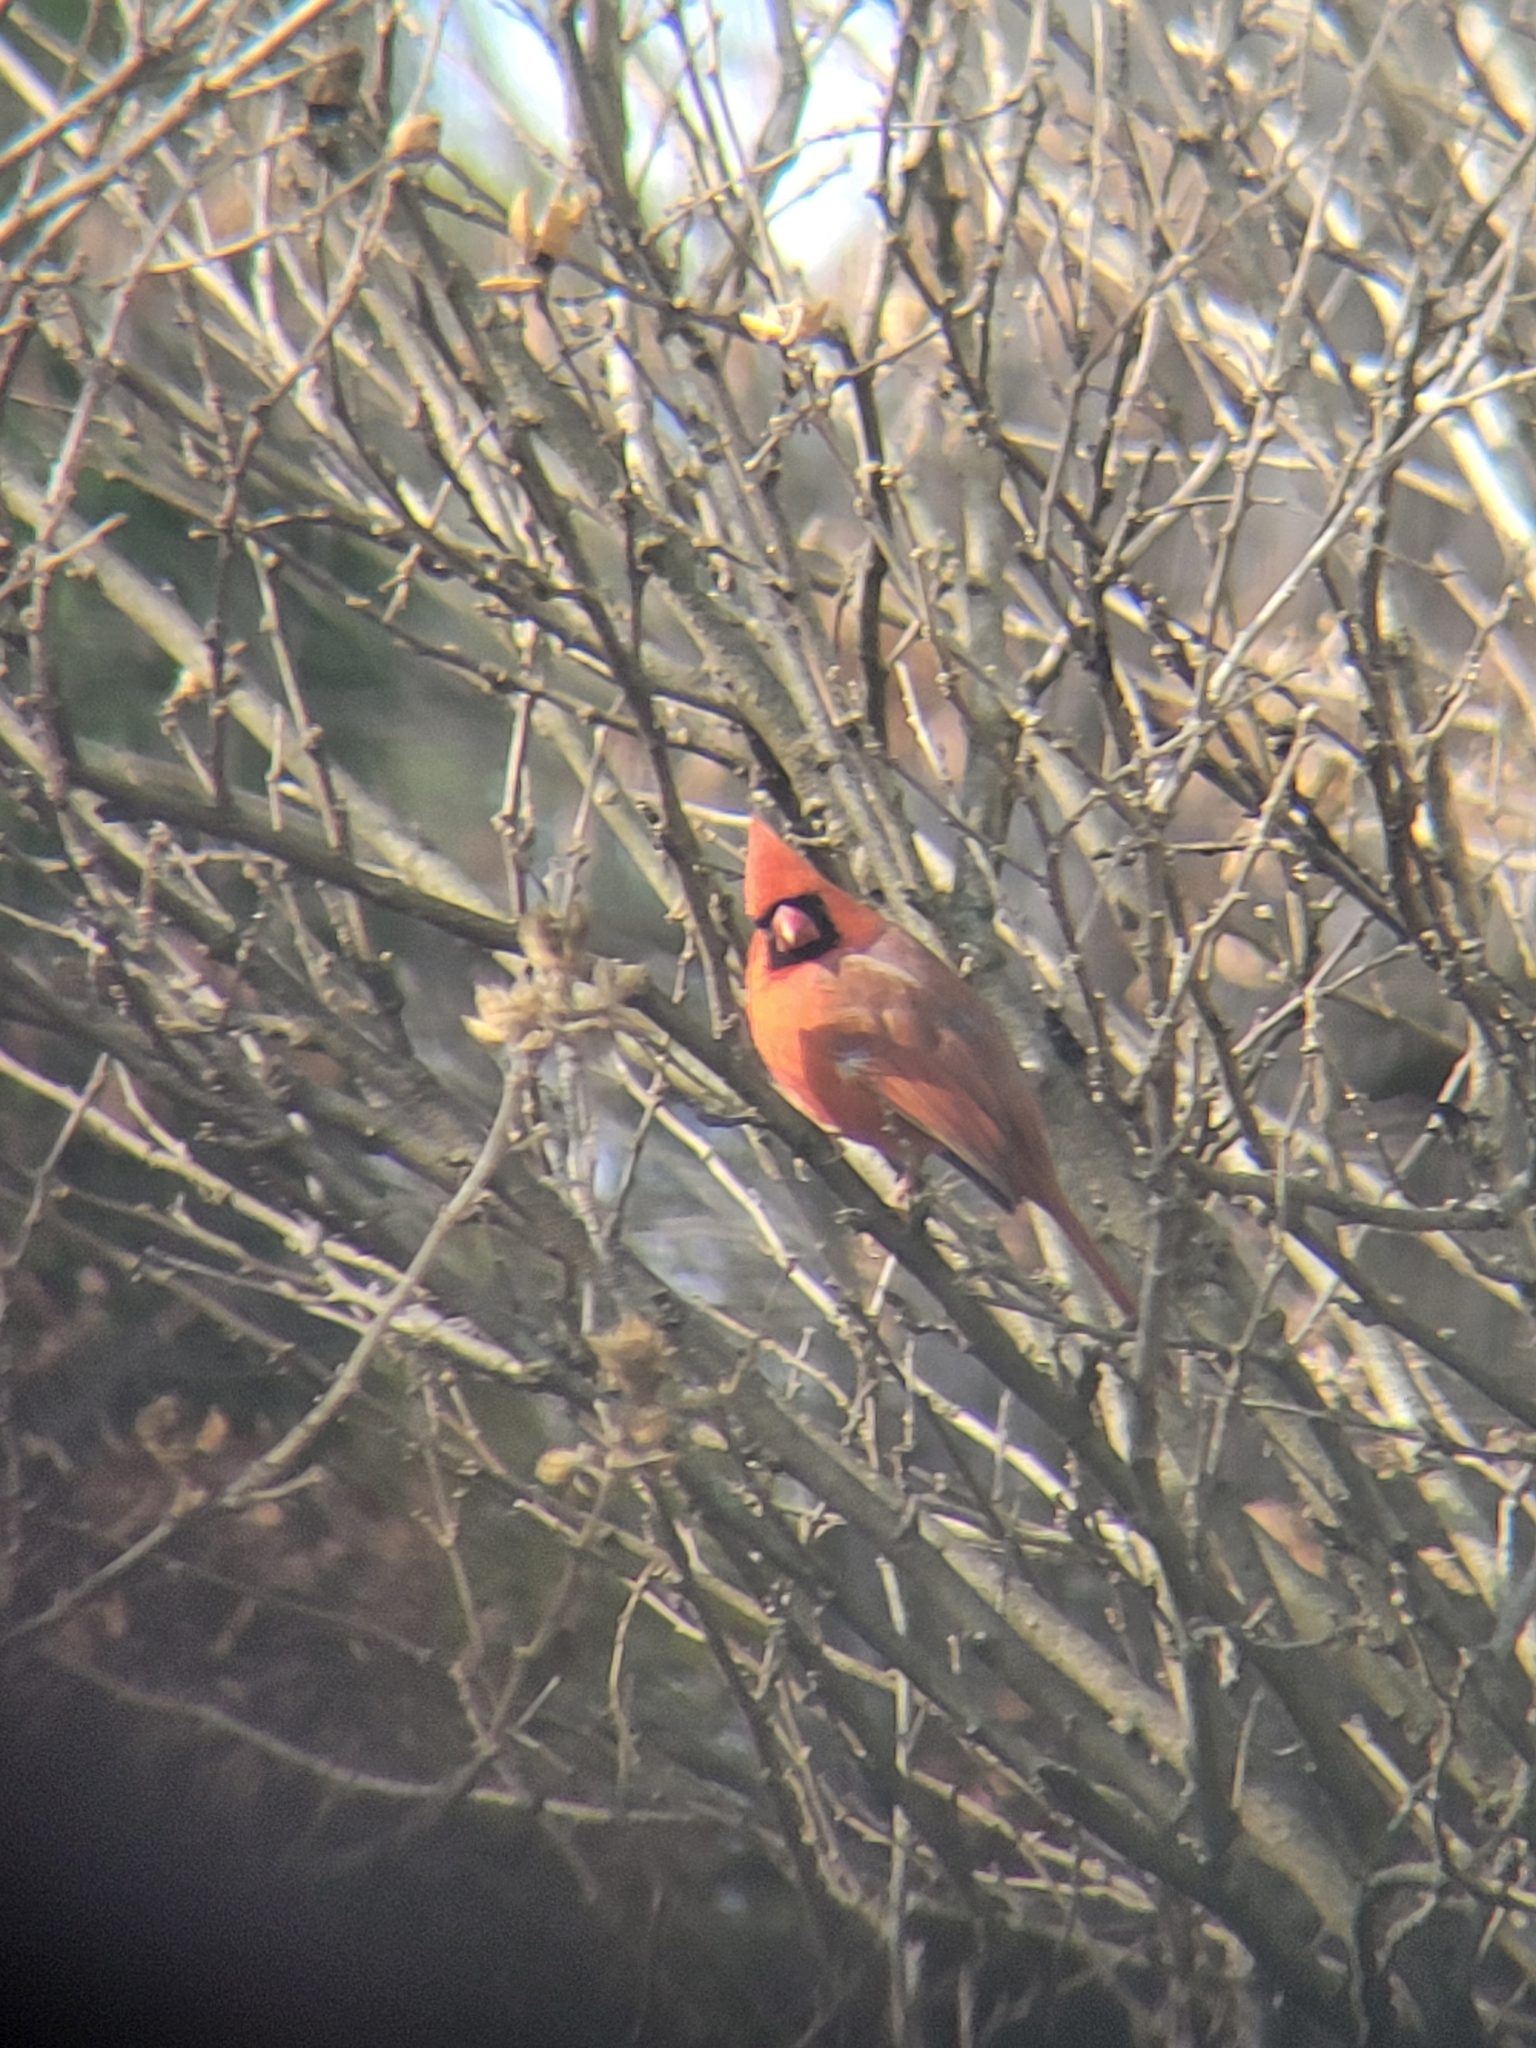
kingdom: Animalia
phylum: Chordata
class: Aves
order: Passeriformes
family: Cardinalidae
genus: Cardinalis
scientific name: Cardinalis cardinalis
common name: Northern cardinal
